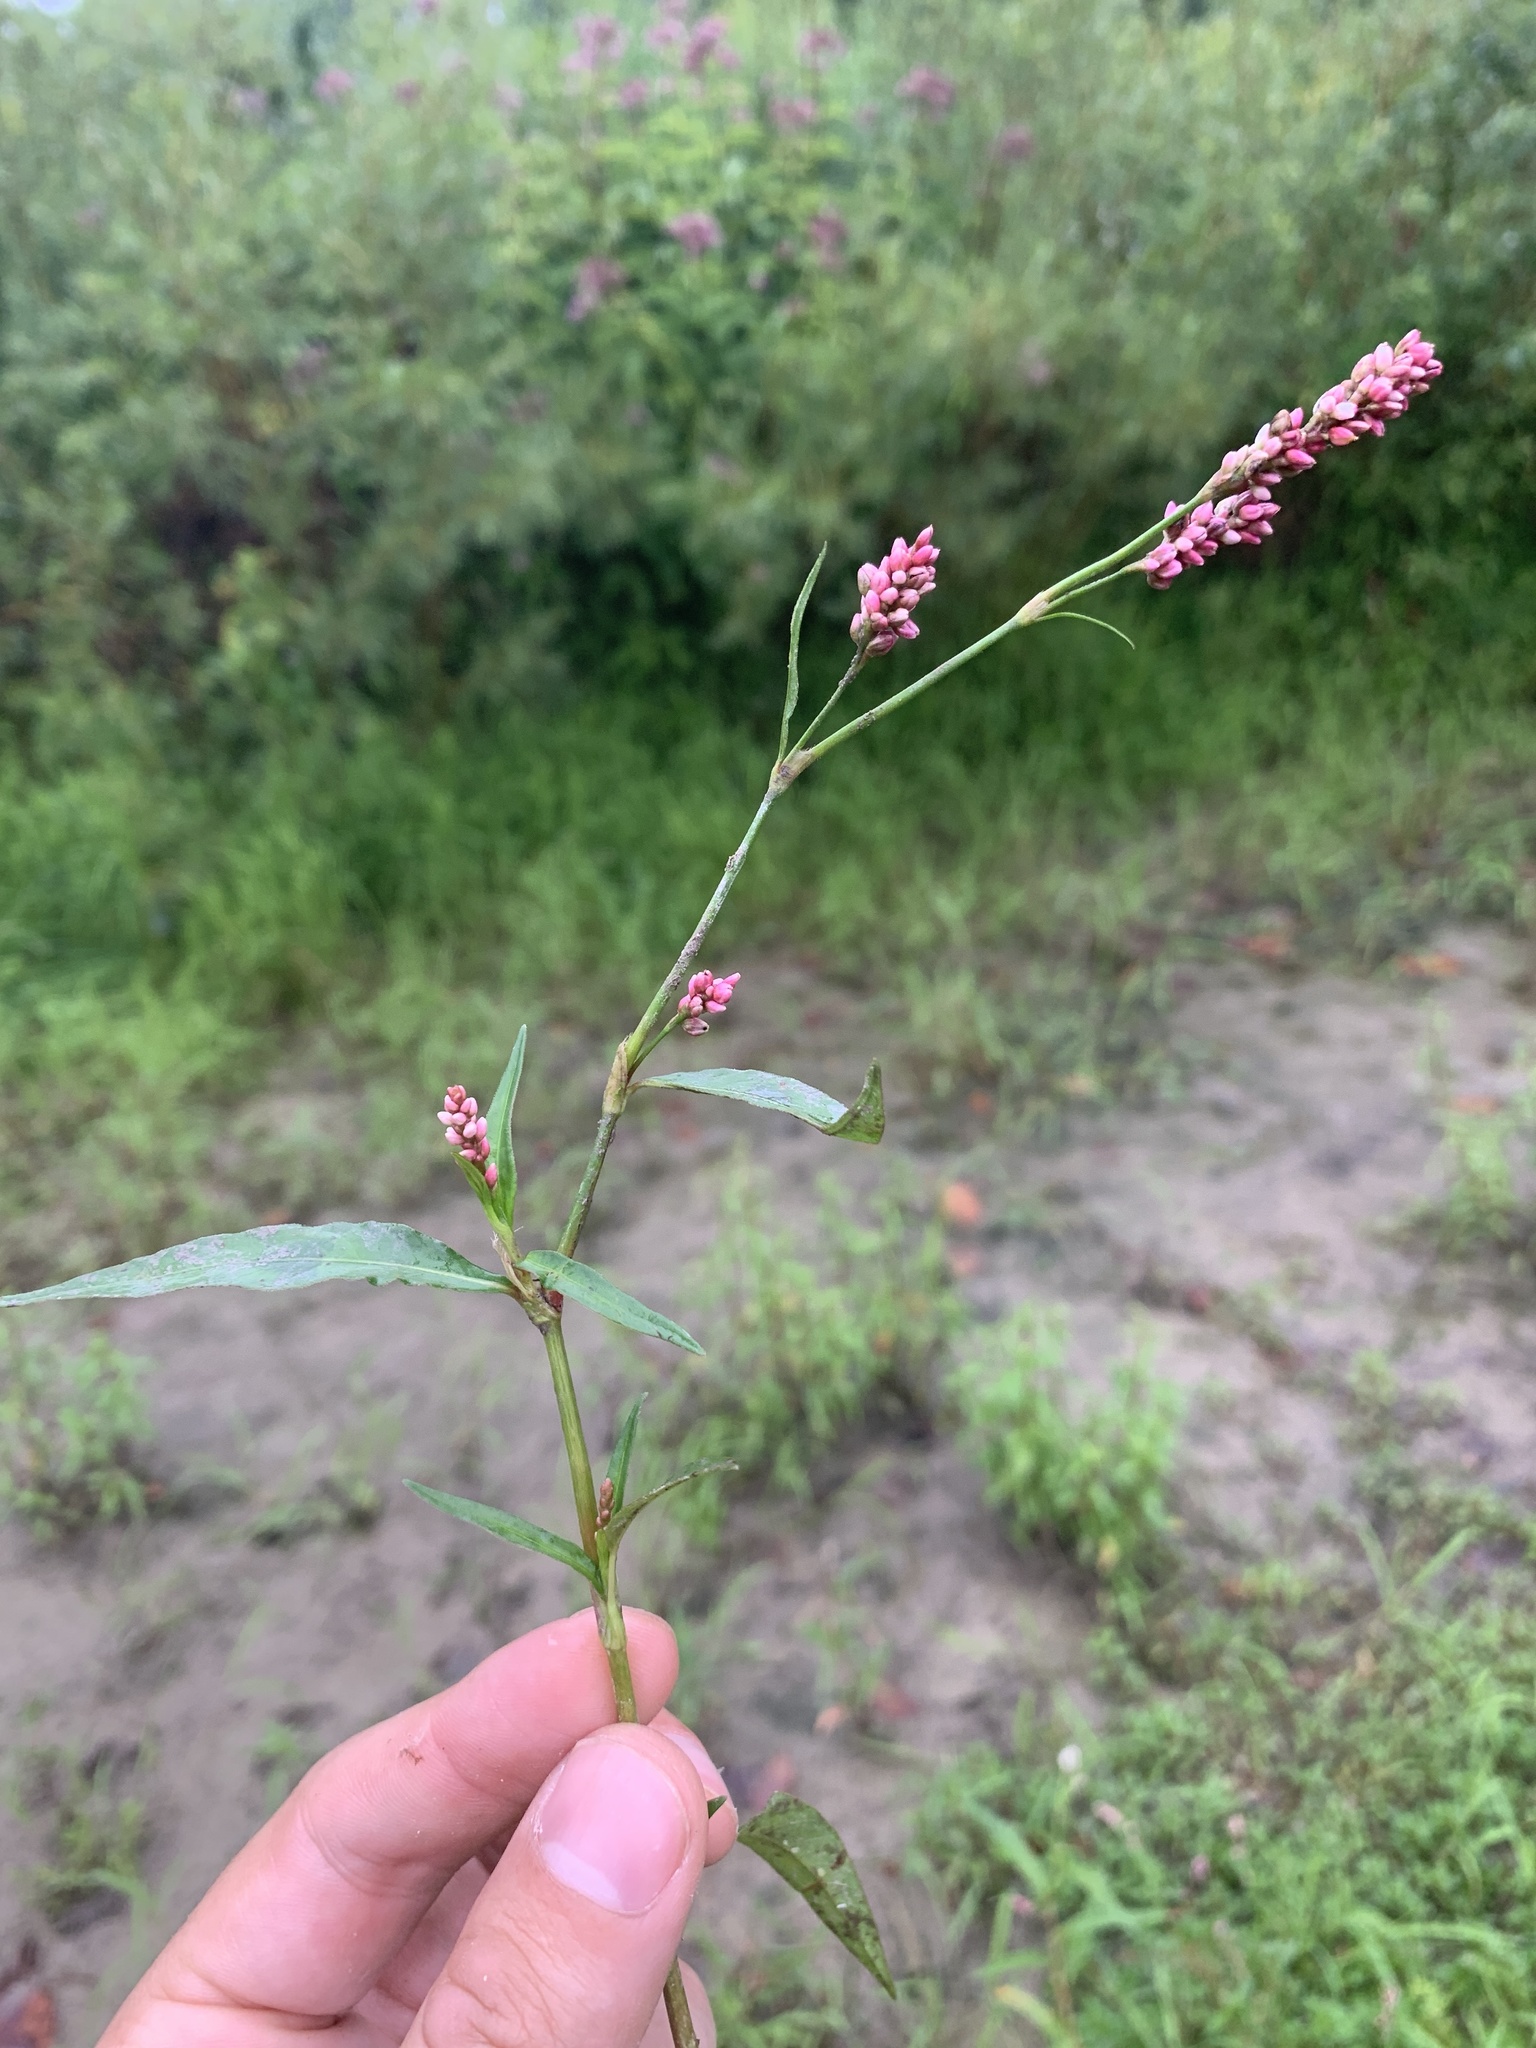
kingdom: Plantae
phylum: Tracheophyta
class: Magnoliopsida
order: Caryophyllales
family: Polygonaceae
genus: Persicaria
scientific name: Persicaria maculosa
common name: Redshank
